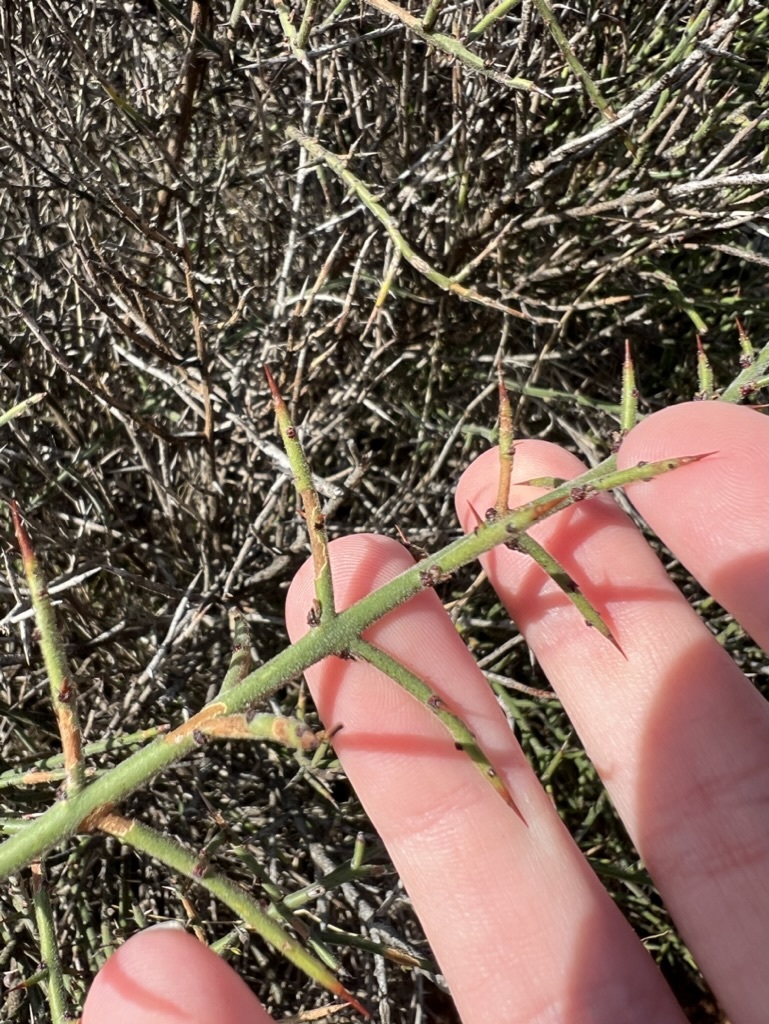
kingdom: Plantae
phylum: Tracheophyta
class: Magnoliopsida
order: Rosales
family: Rhamnaceae
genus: Adolphia
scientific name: Adolphia californica
